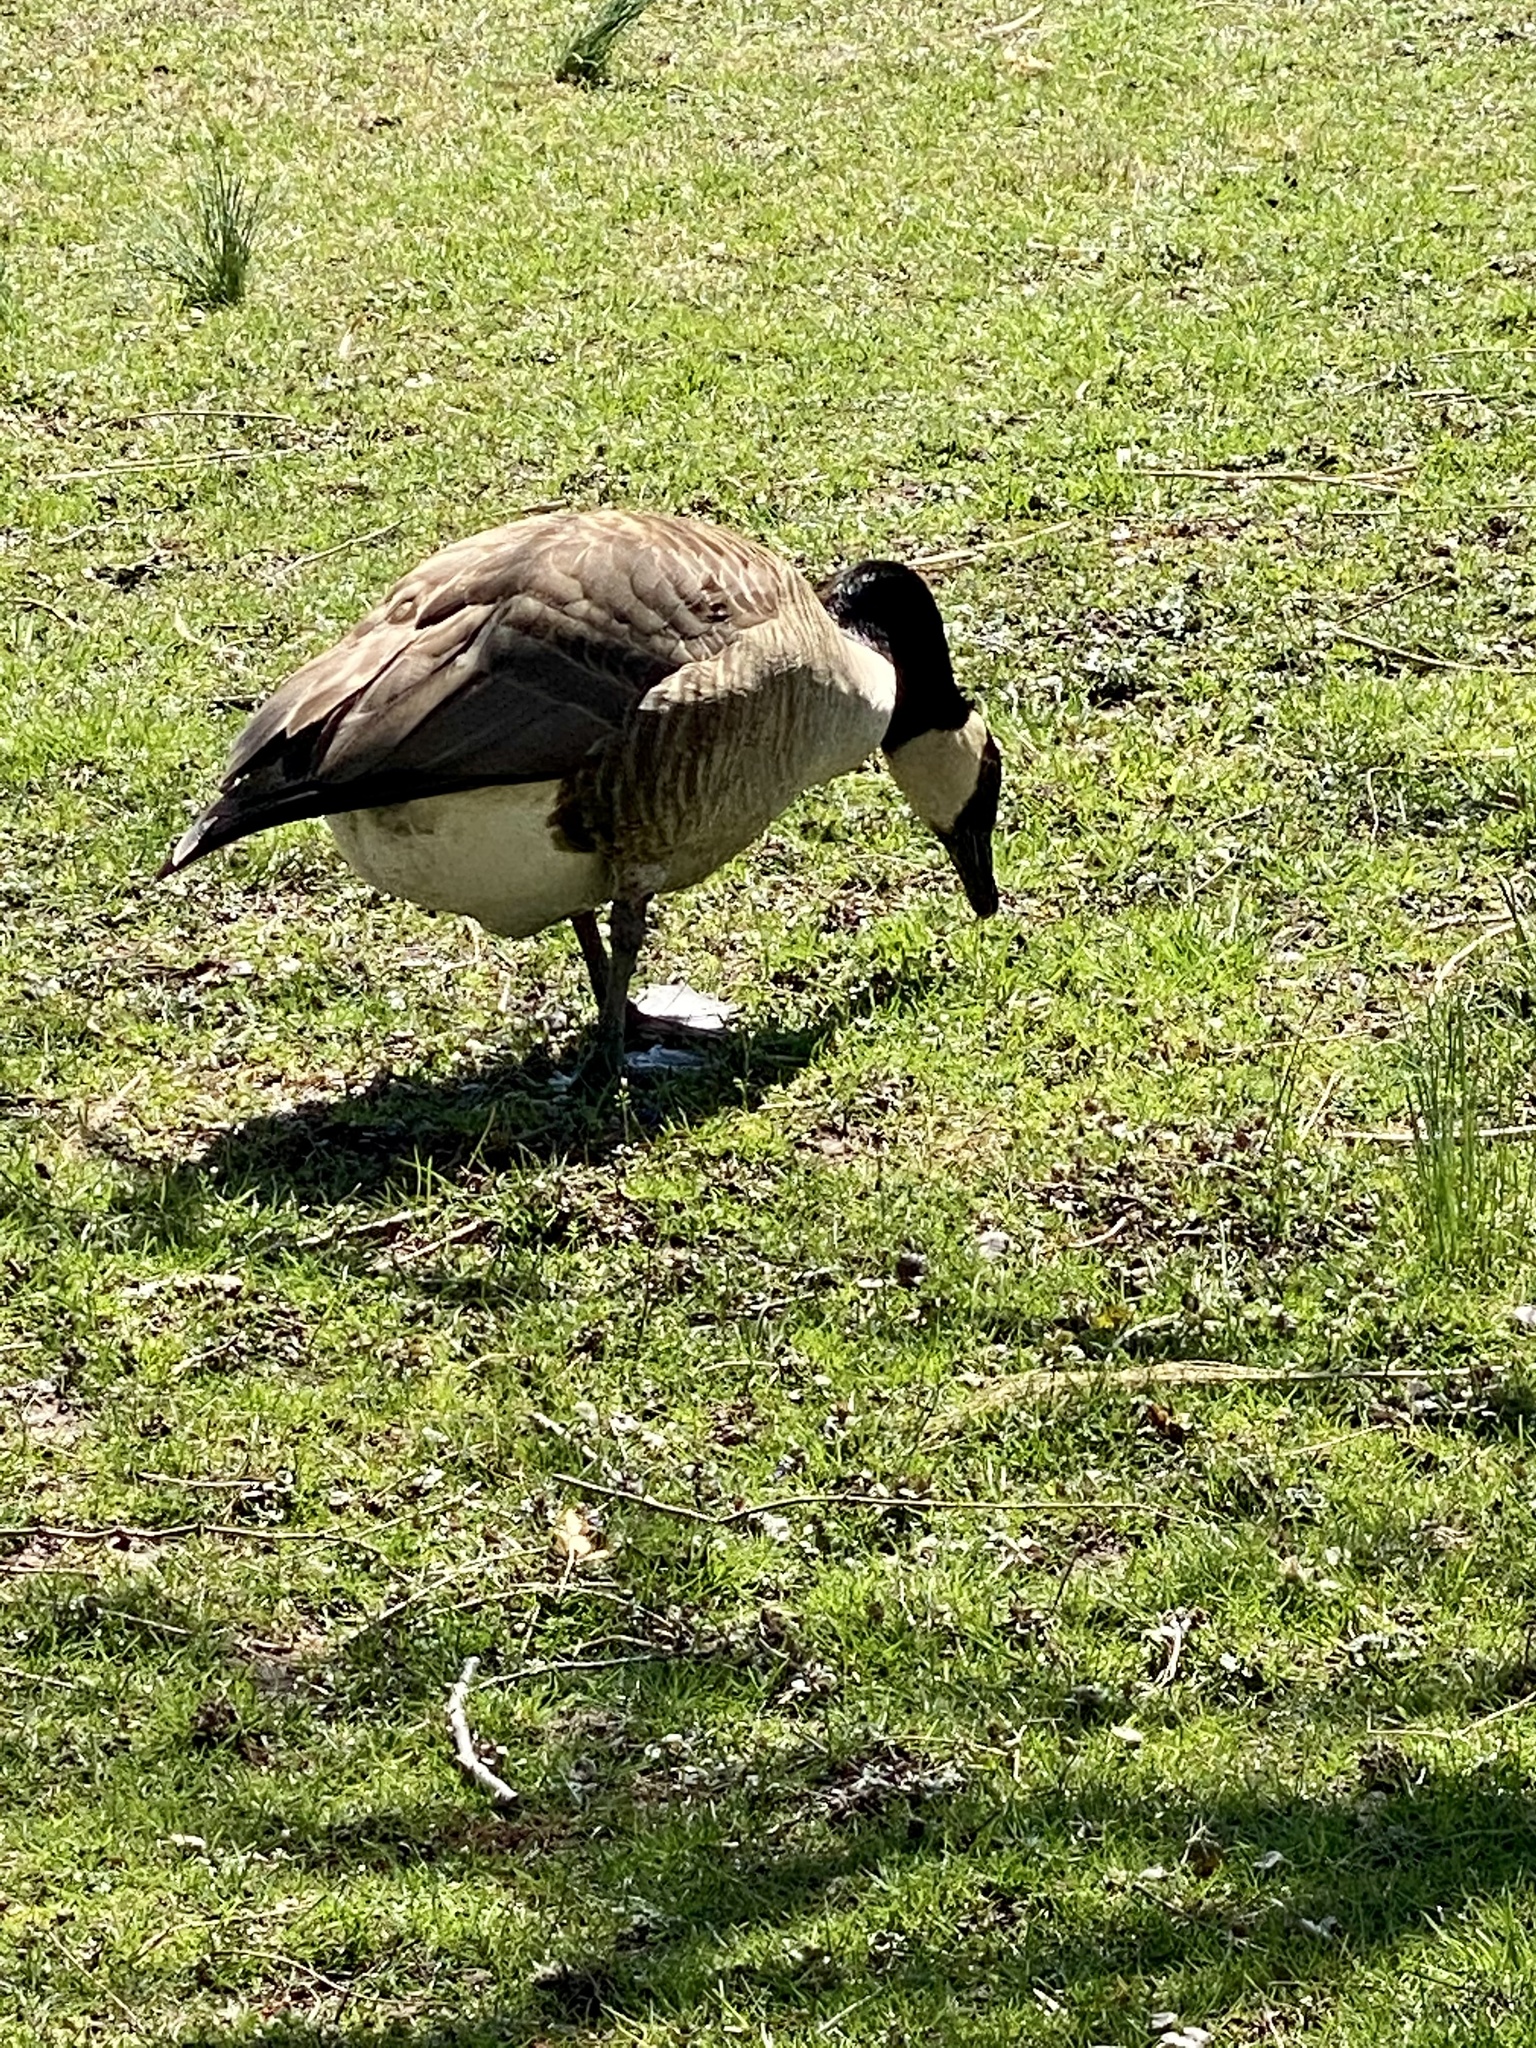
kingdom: Animalia
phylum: Chordata
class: Aves
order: Anseriformes
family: Anatidae
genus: Branta
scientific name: Branta canadensis
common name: Canada goose
